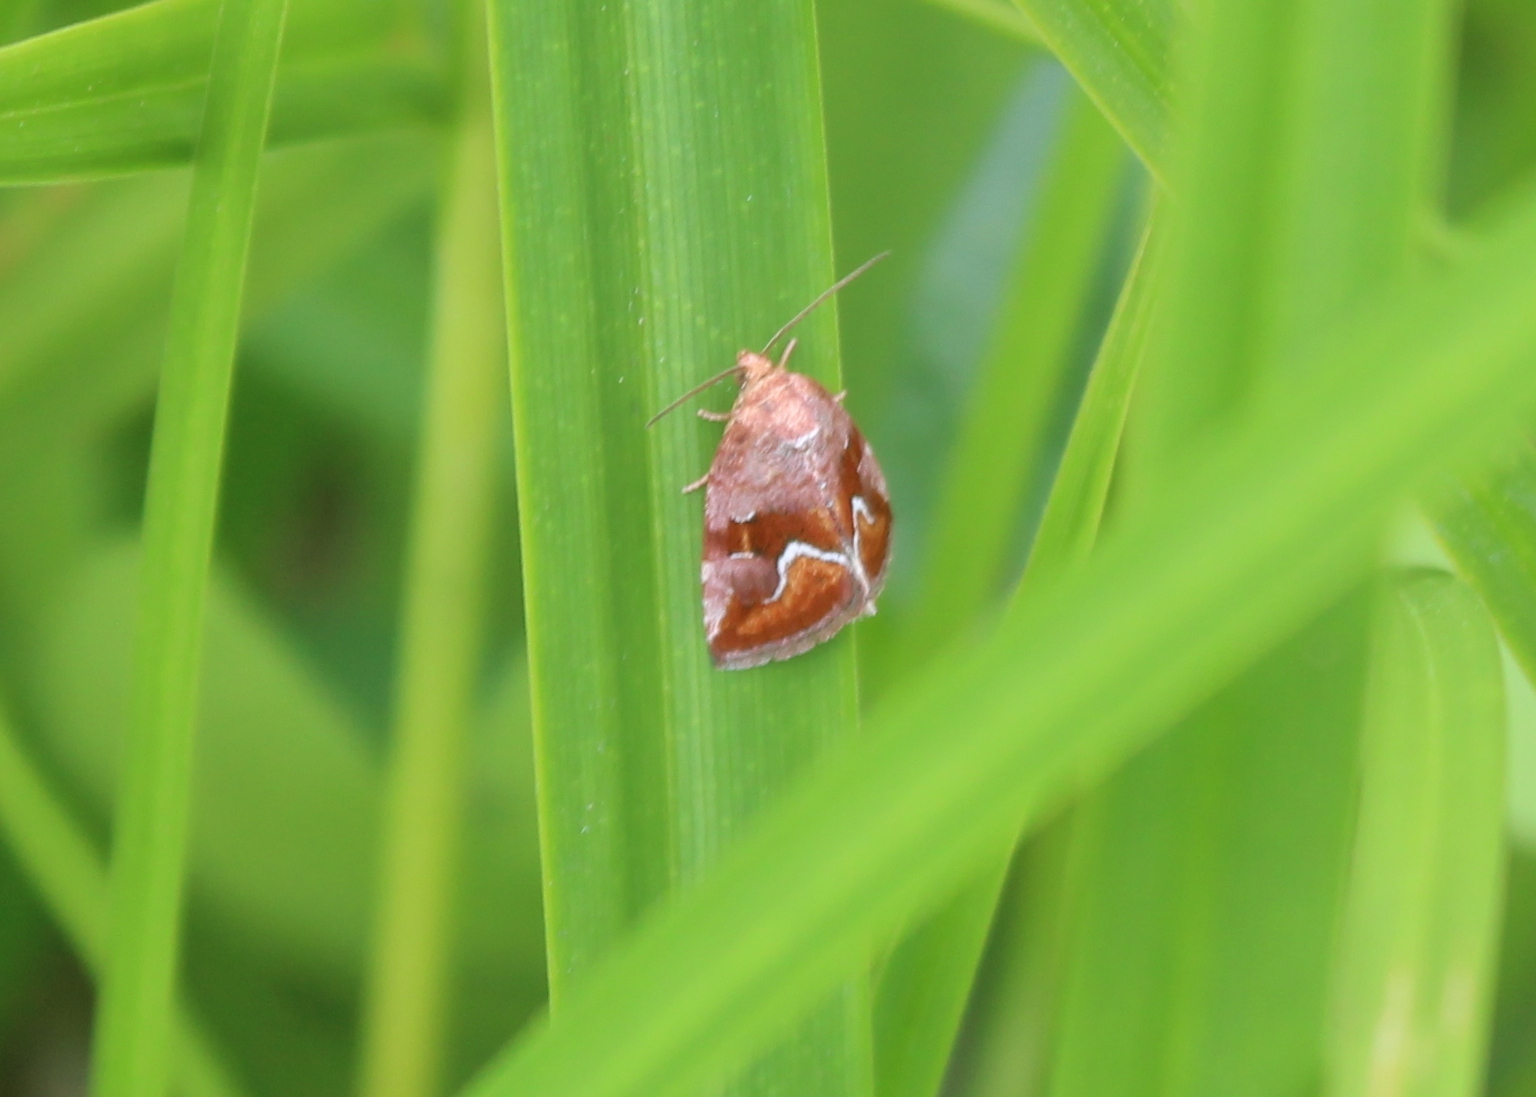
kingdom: Animalia
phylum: Arthropoda
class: Insecta
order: Lepidoptera
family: Noctuidae
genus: Deltote
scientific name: Deltote bellicula
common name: Bog glyph
